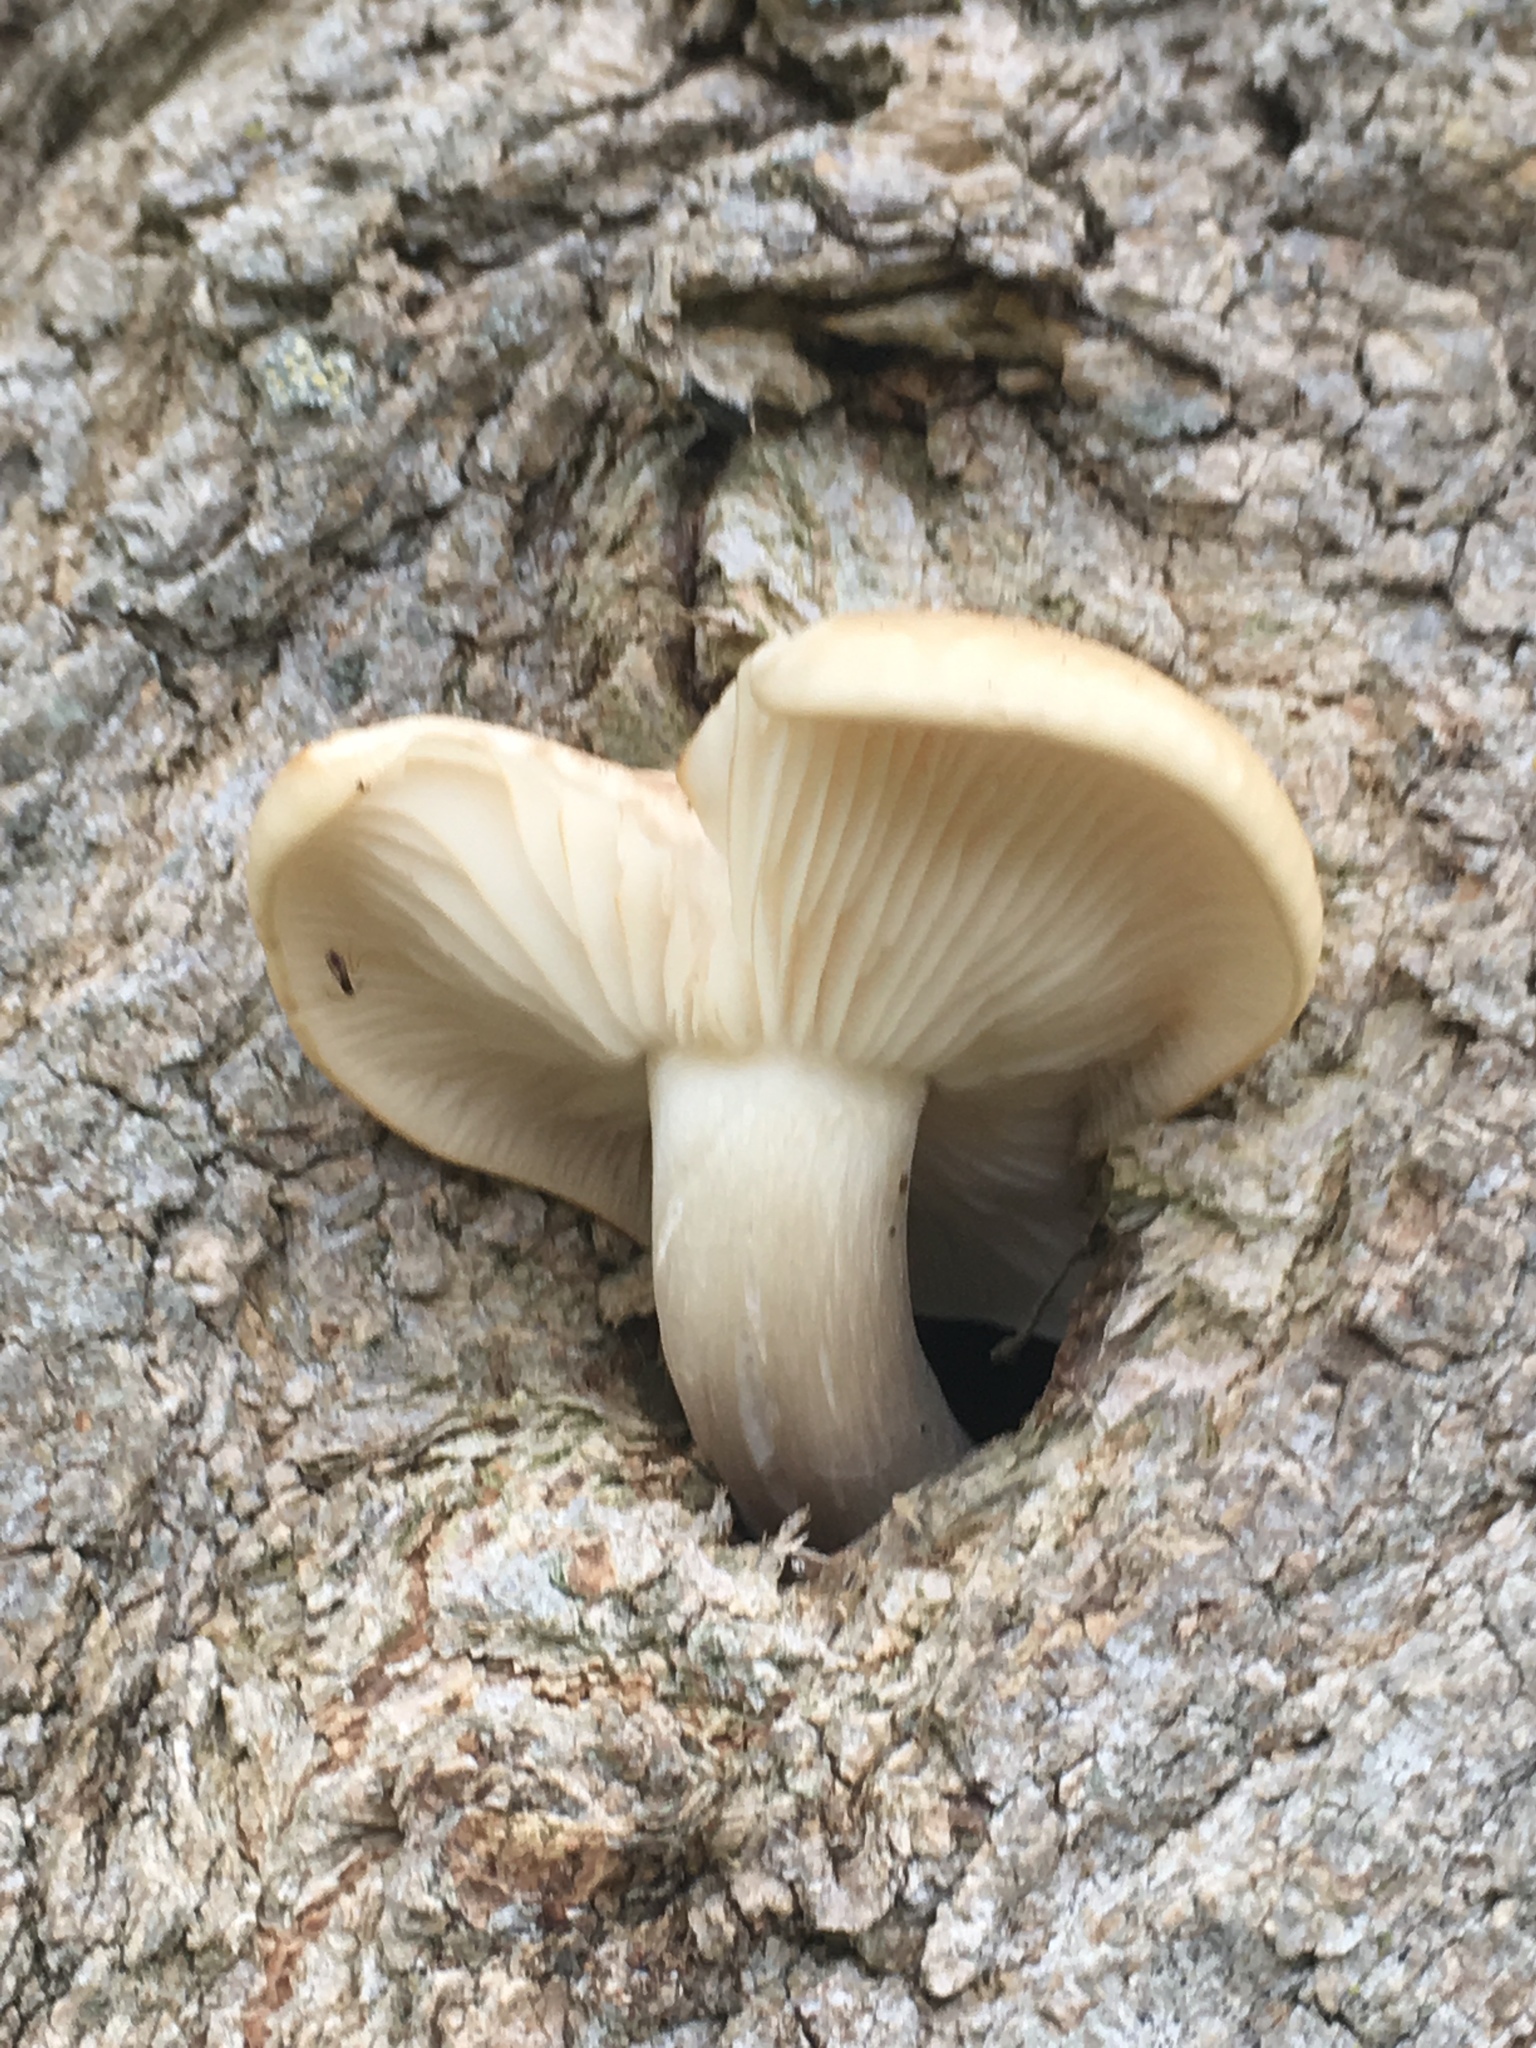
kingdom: Fungi
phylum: Basidiomycota
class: Agaricomycetes
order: Agaricales
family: Lyophyllaceae
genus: Hypsizygus
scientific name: Hypsizygus ulmarius
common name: Elm leech
